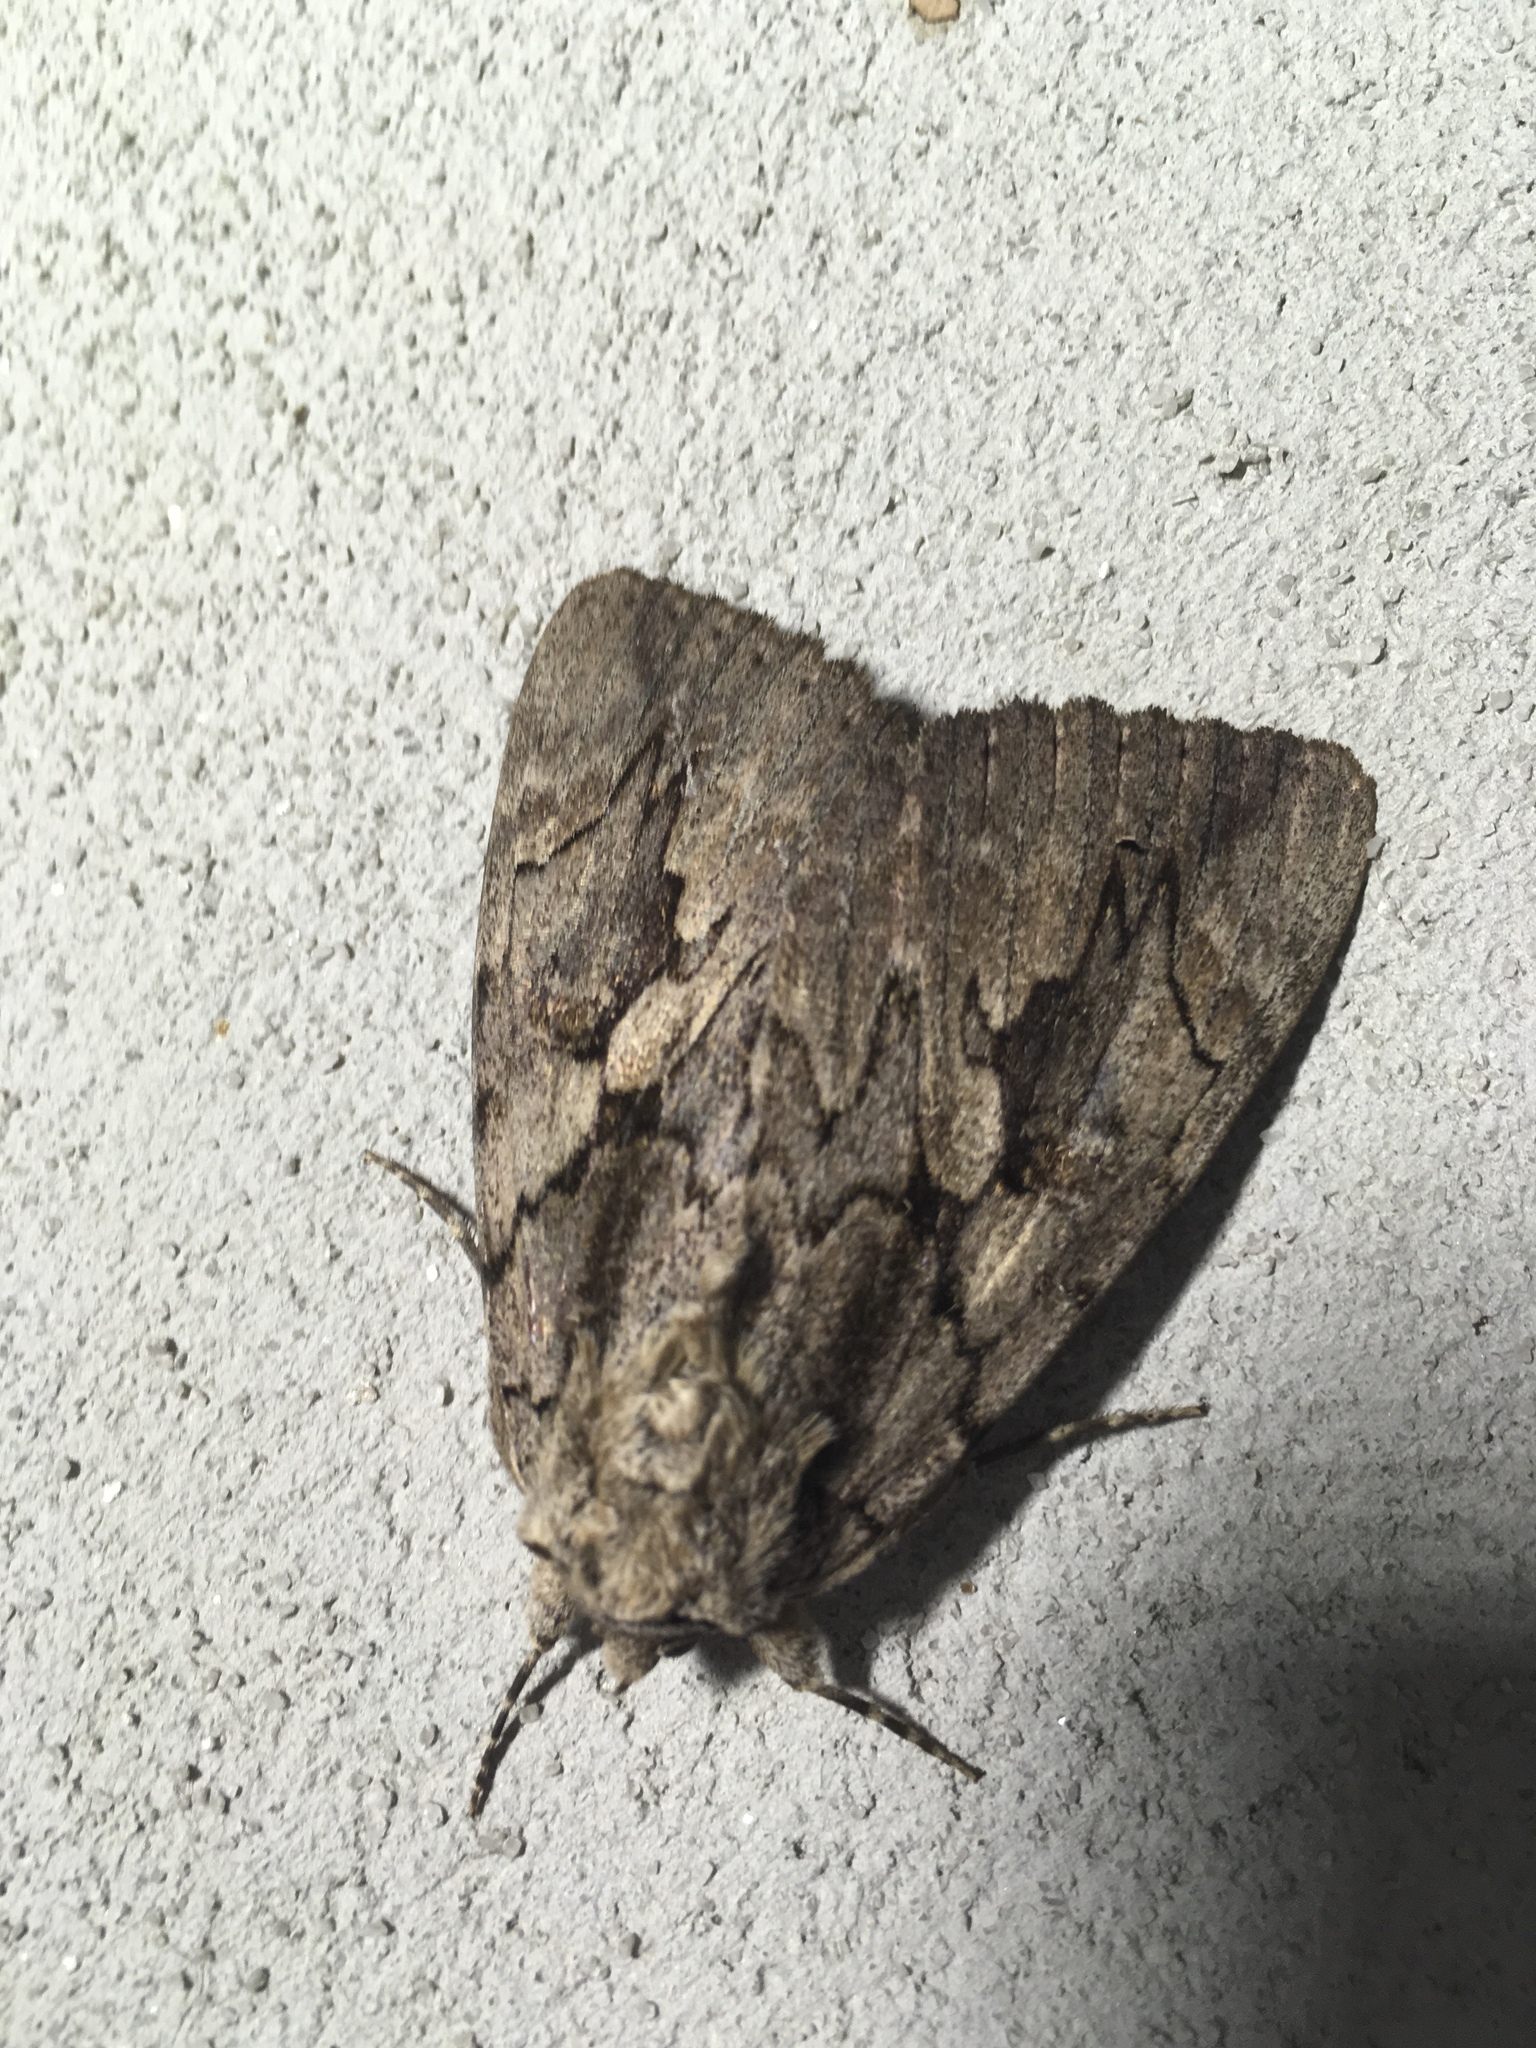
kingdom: Animalia
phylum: Arthropoda
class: Insecta
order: Lepidoptera
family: Erebidae
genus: Catocala
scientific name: Catocala amatrix
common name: Sweetheart underwing
